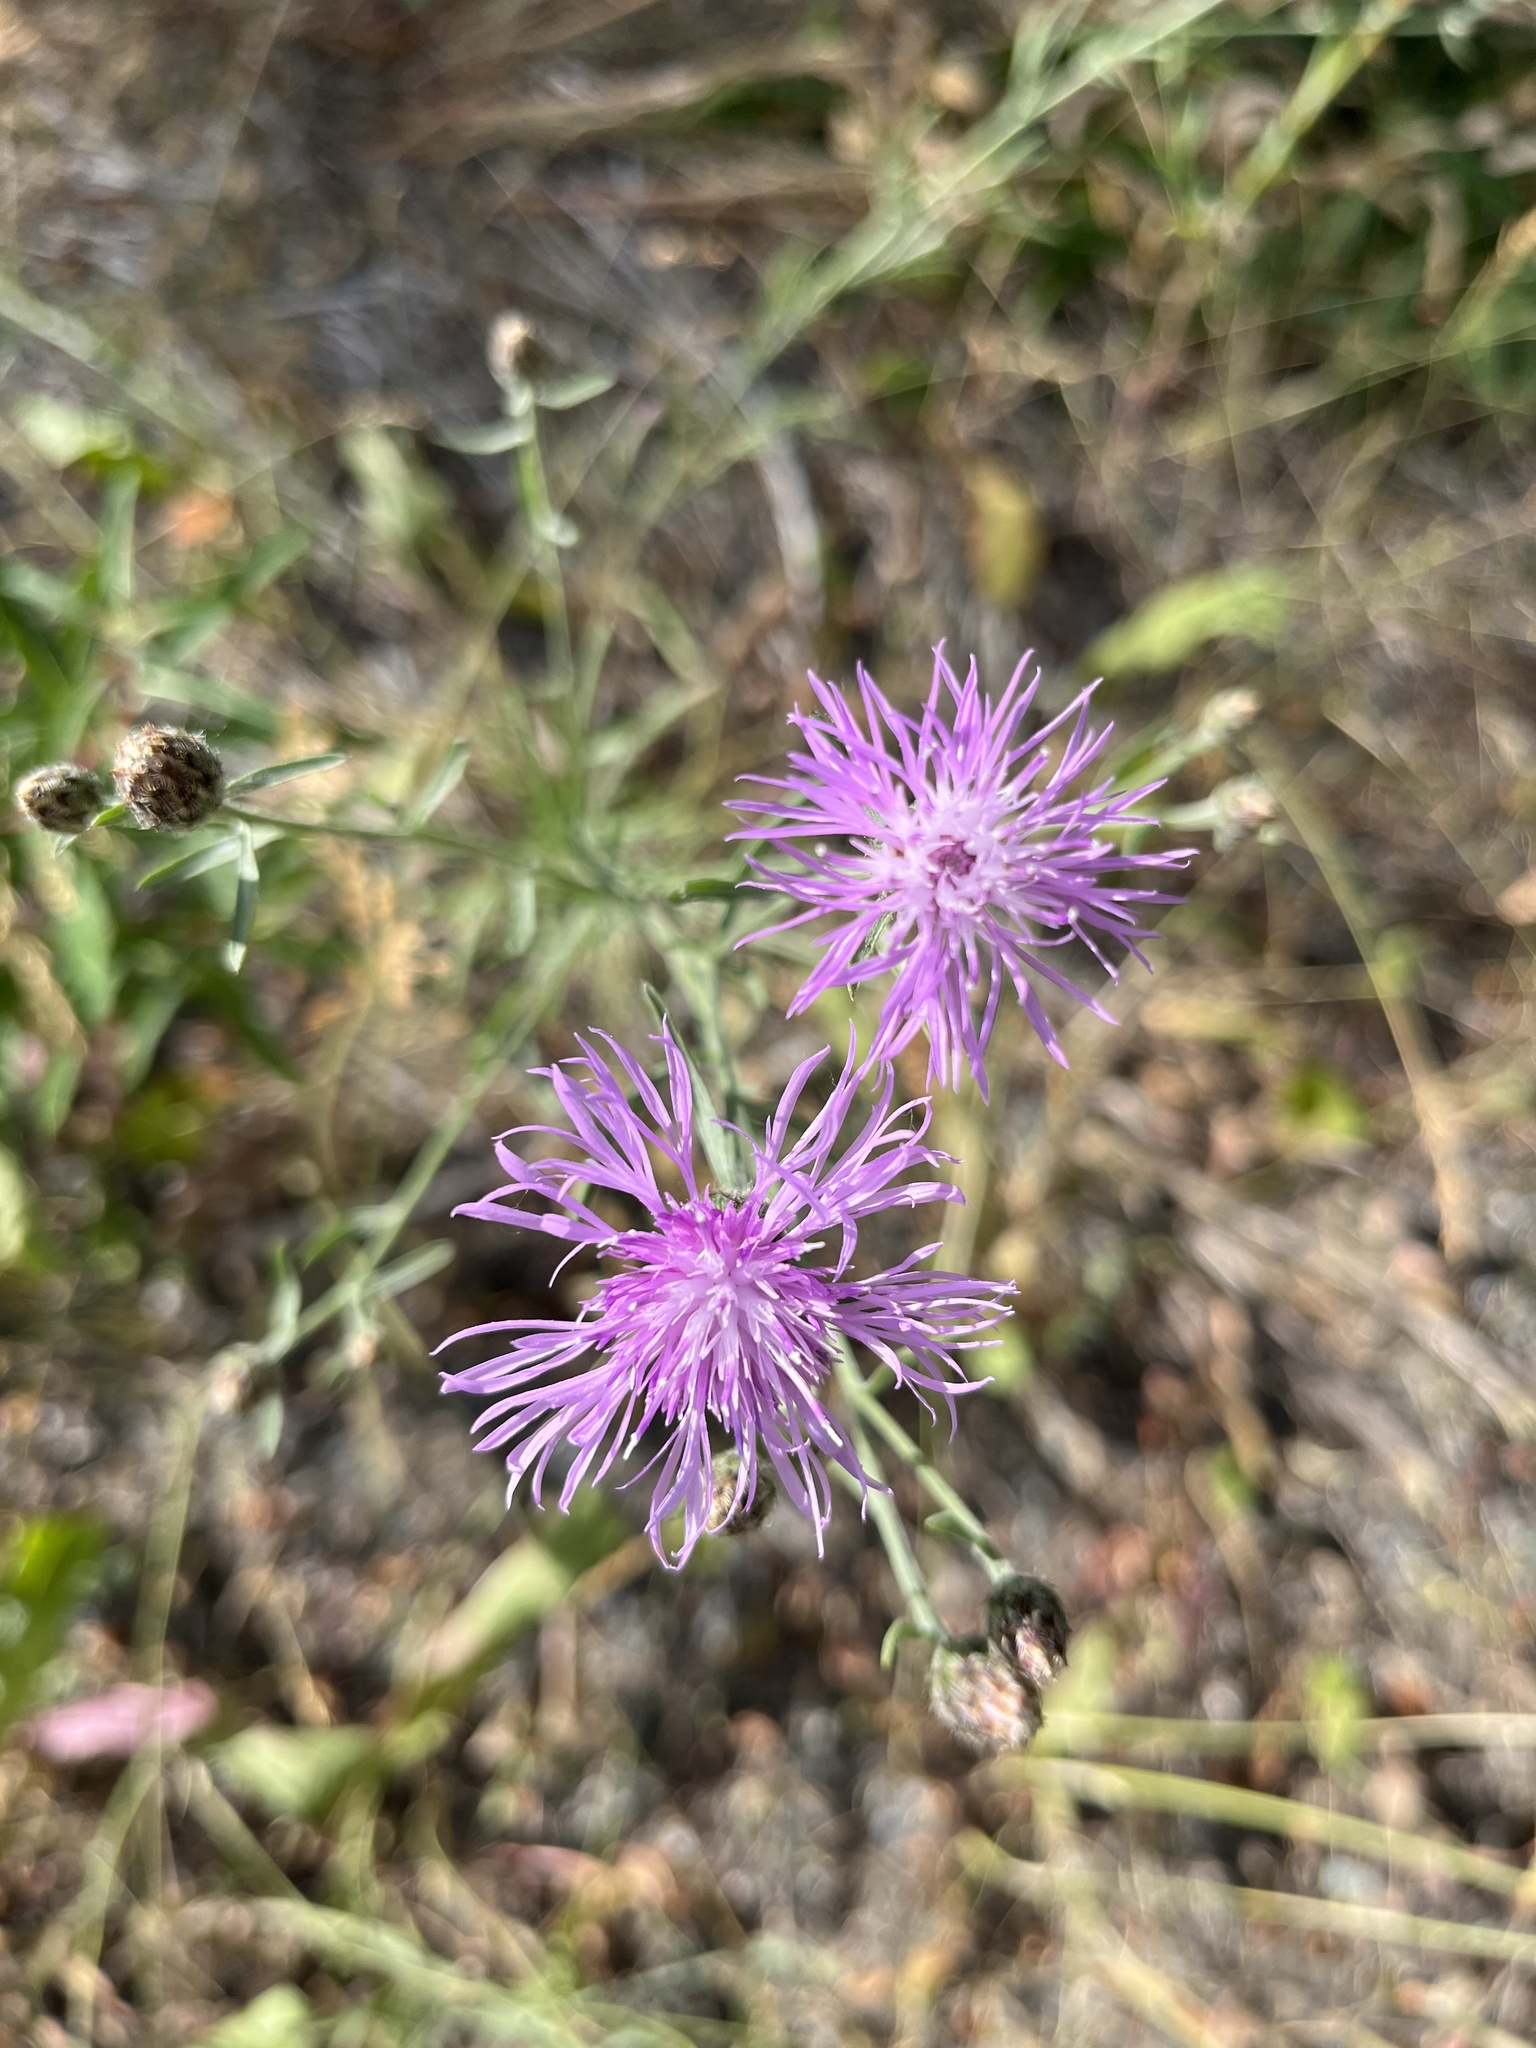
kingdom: Plantae
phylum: Tracheophyta
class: Magnoliopsida
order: Asterales
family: Asteraceae
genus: Centaurea
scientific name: Centaurea stoebe
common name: Spotted knapweed
